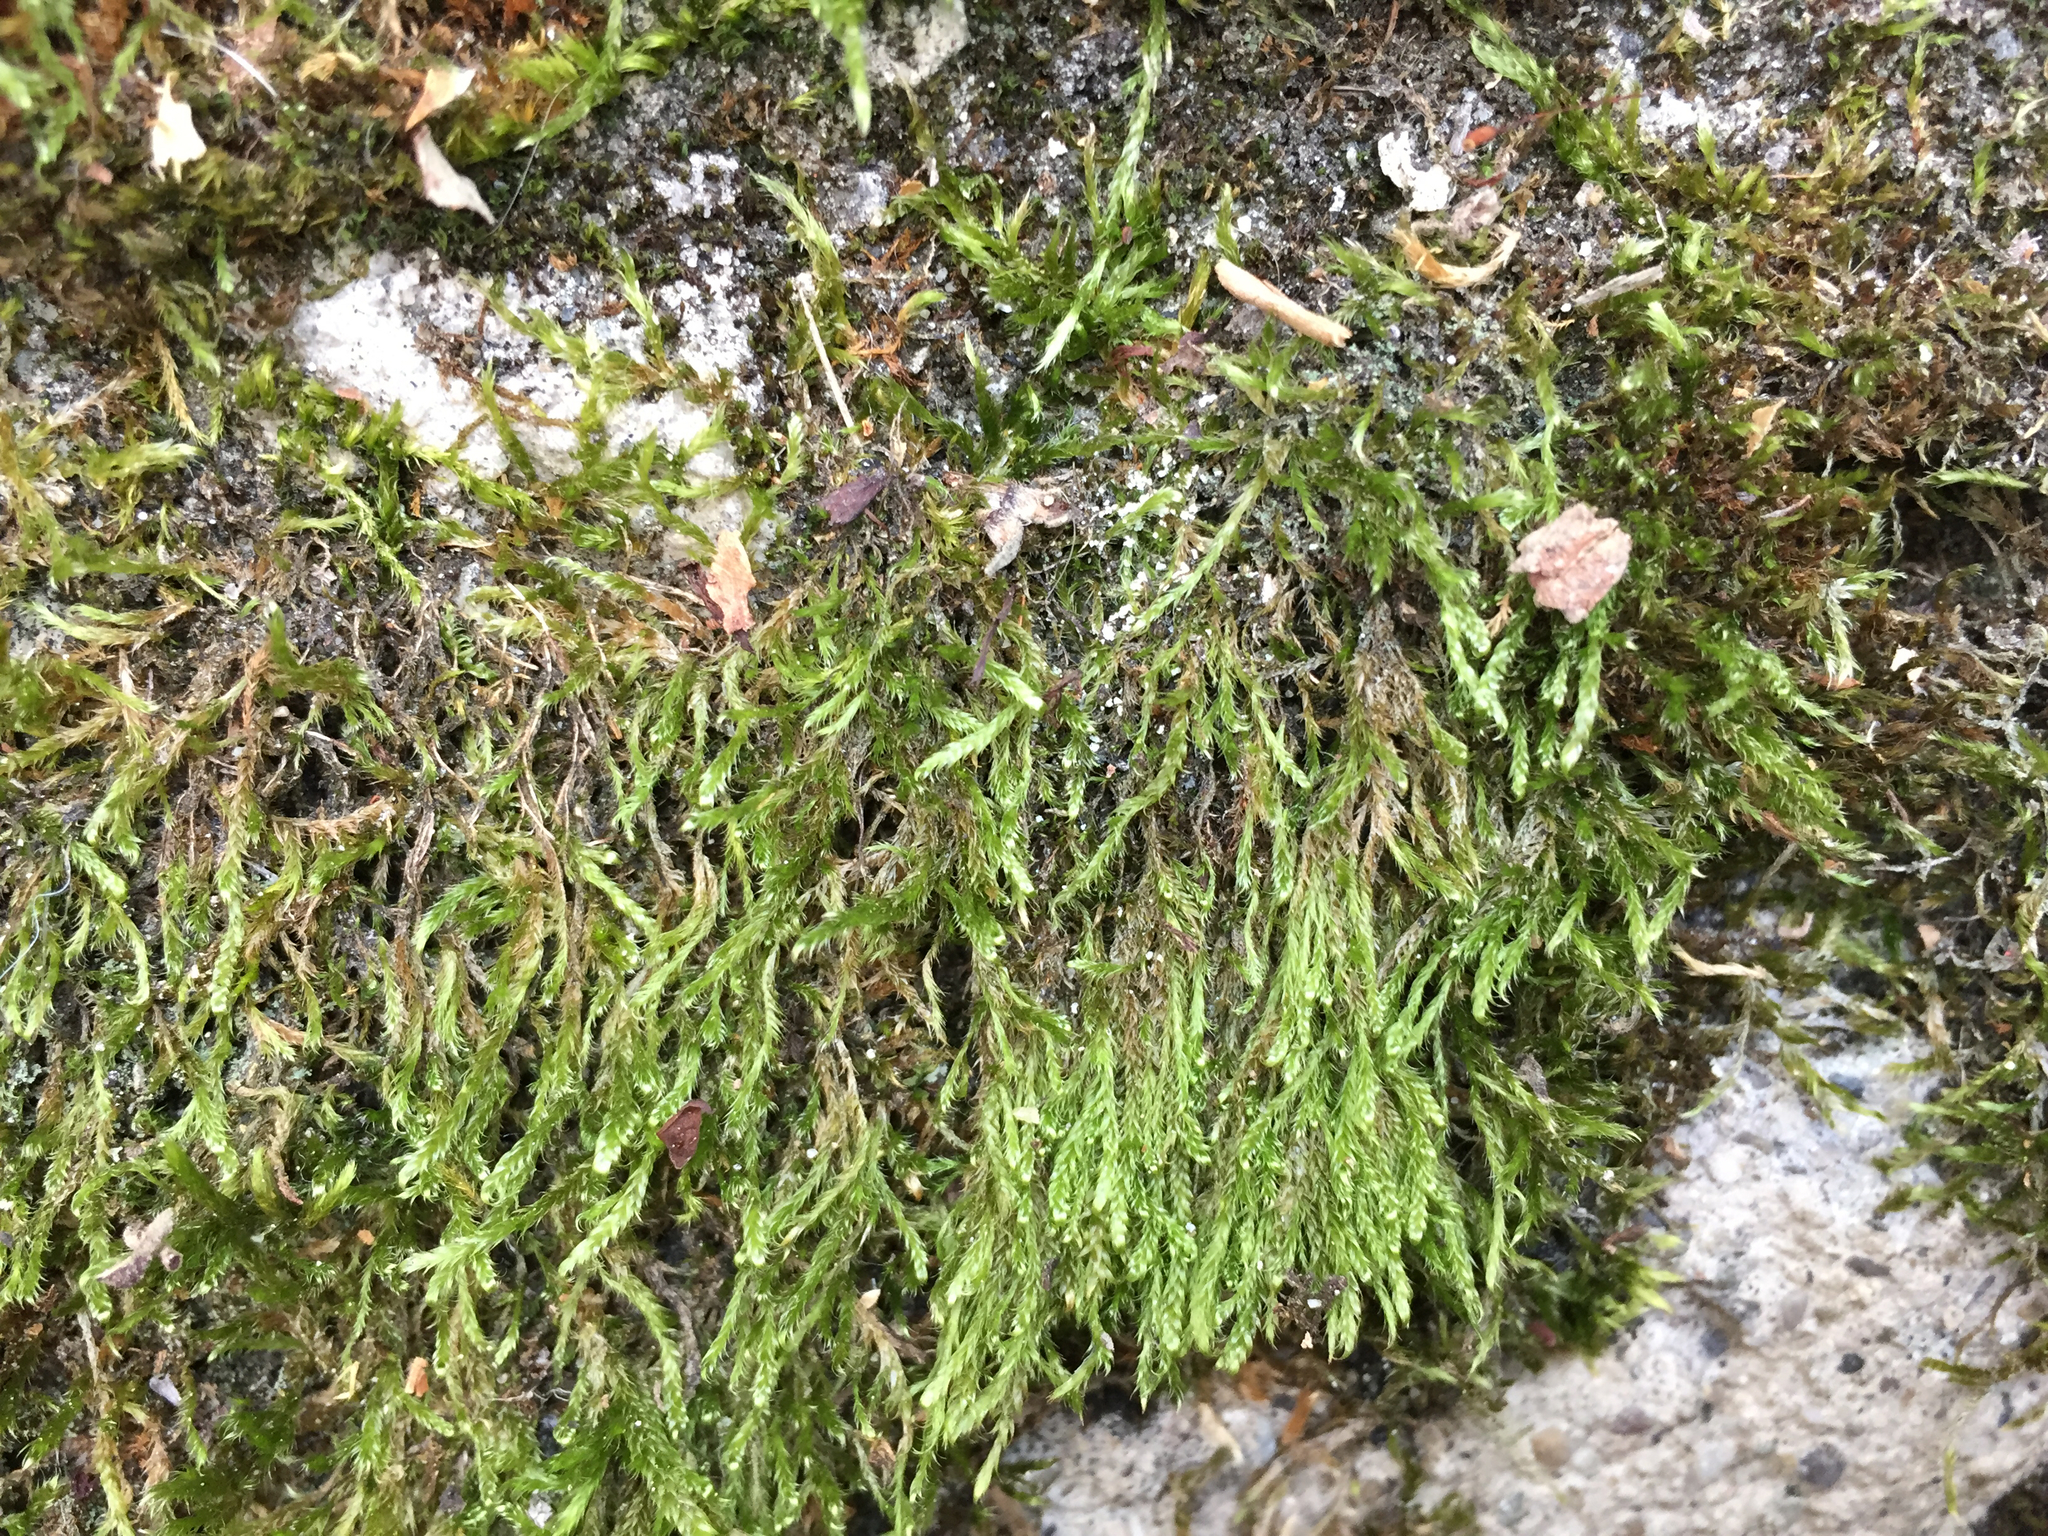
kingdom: Plantae
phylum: Bryophyta
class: Bryopsida
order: Hypnales
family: Hypnaceae
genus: Hypnum
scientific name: Hypnum cupressiforme
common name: Cypress-leaved plait-moss
